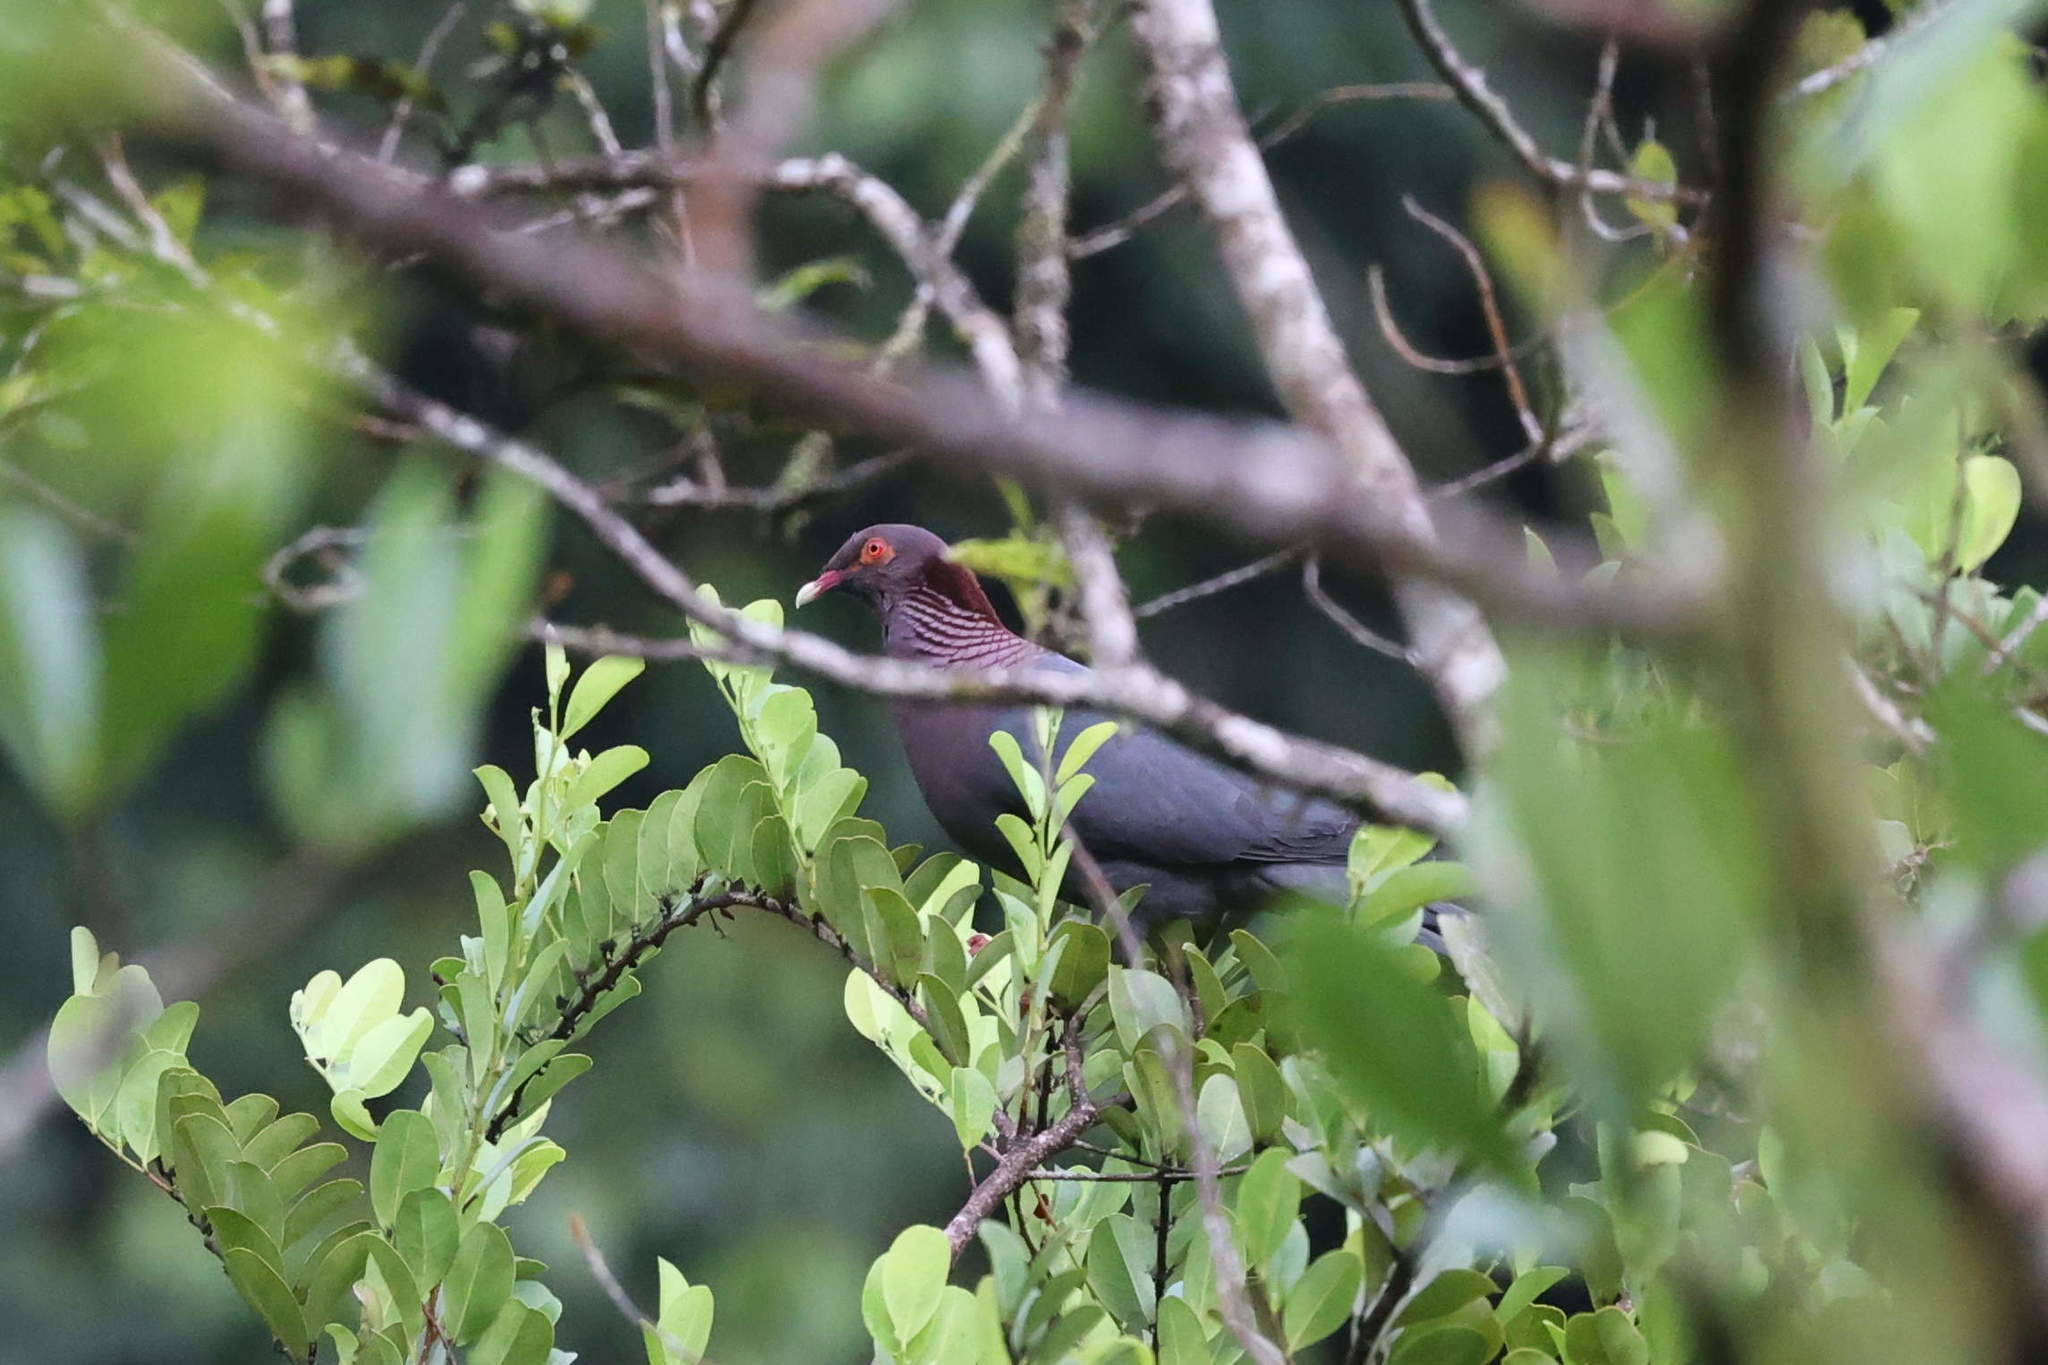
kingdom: Animalia
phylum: Chordata
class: Aves
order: Columbiformes
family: Columbidae
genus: Patagioenas
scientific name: Patagioenas squamosa
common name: Scaly-naped pigeon
